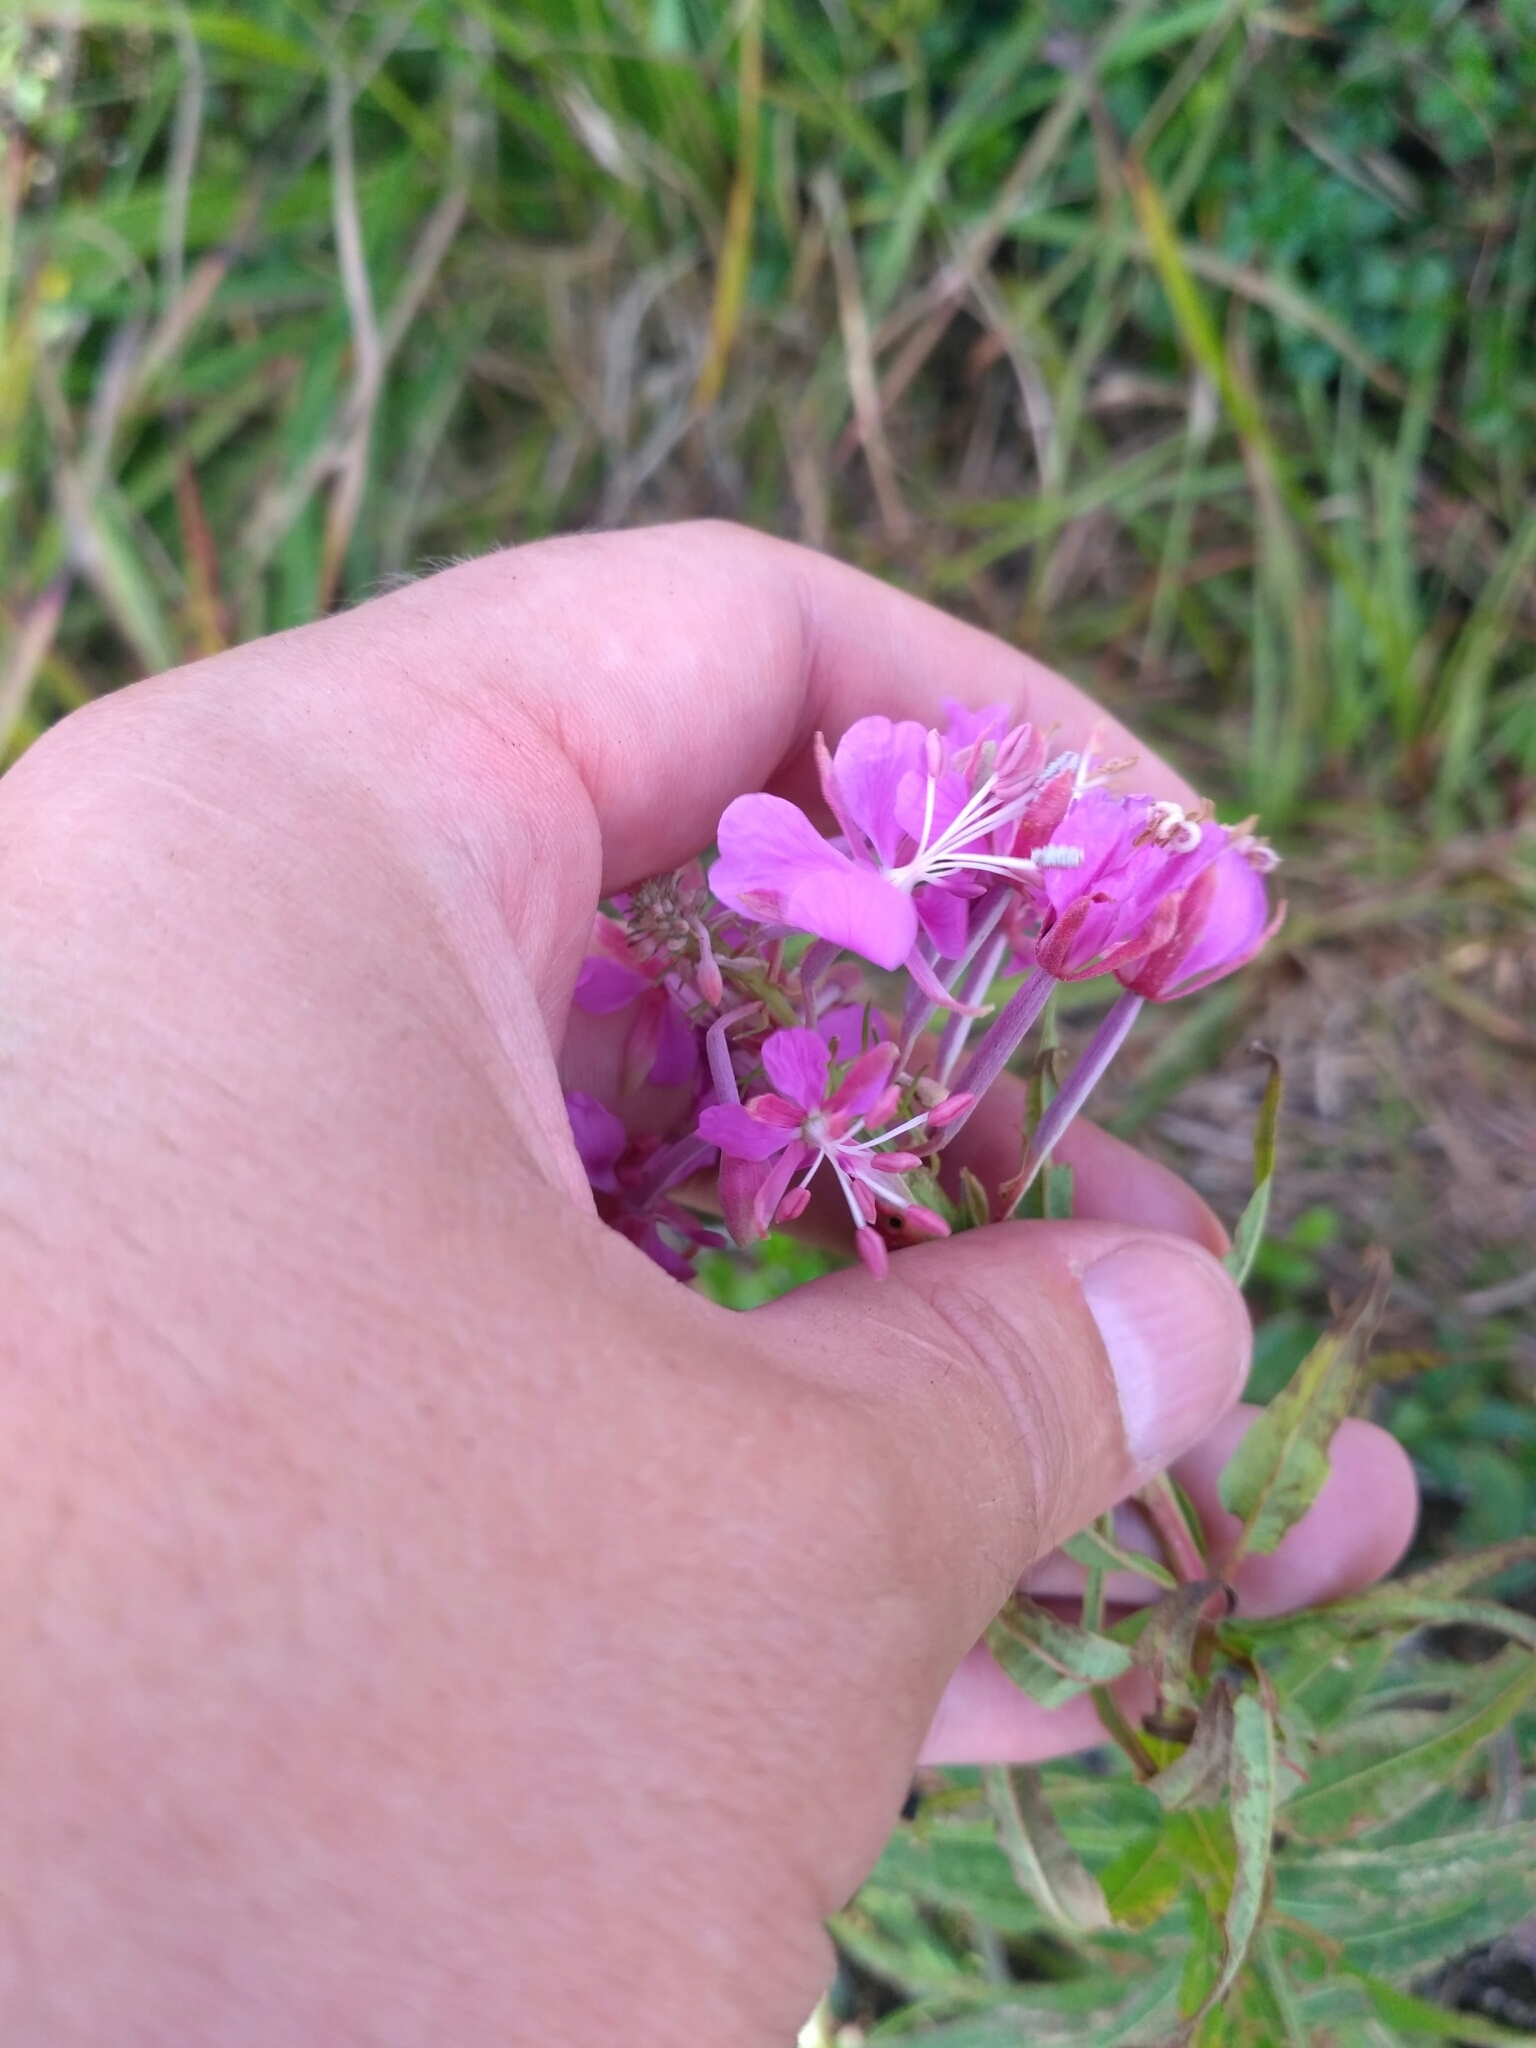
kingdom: Plantae
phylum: Tracheophyta
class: Magnoliopsida
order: Myrtales
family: Onagraceae
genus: Chamaenerion
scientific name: Chamaenerion angustifolium
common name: Fireweed
